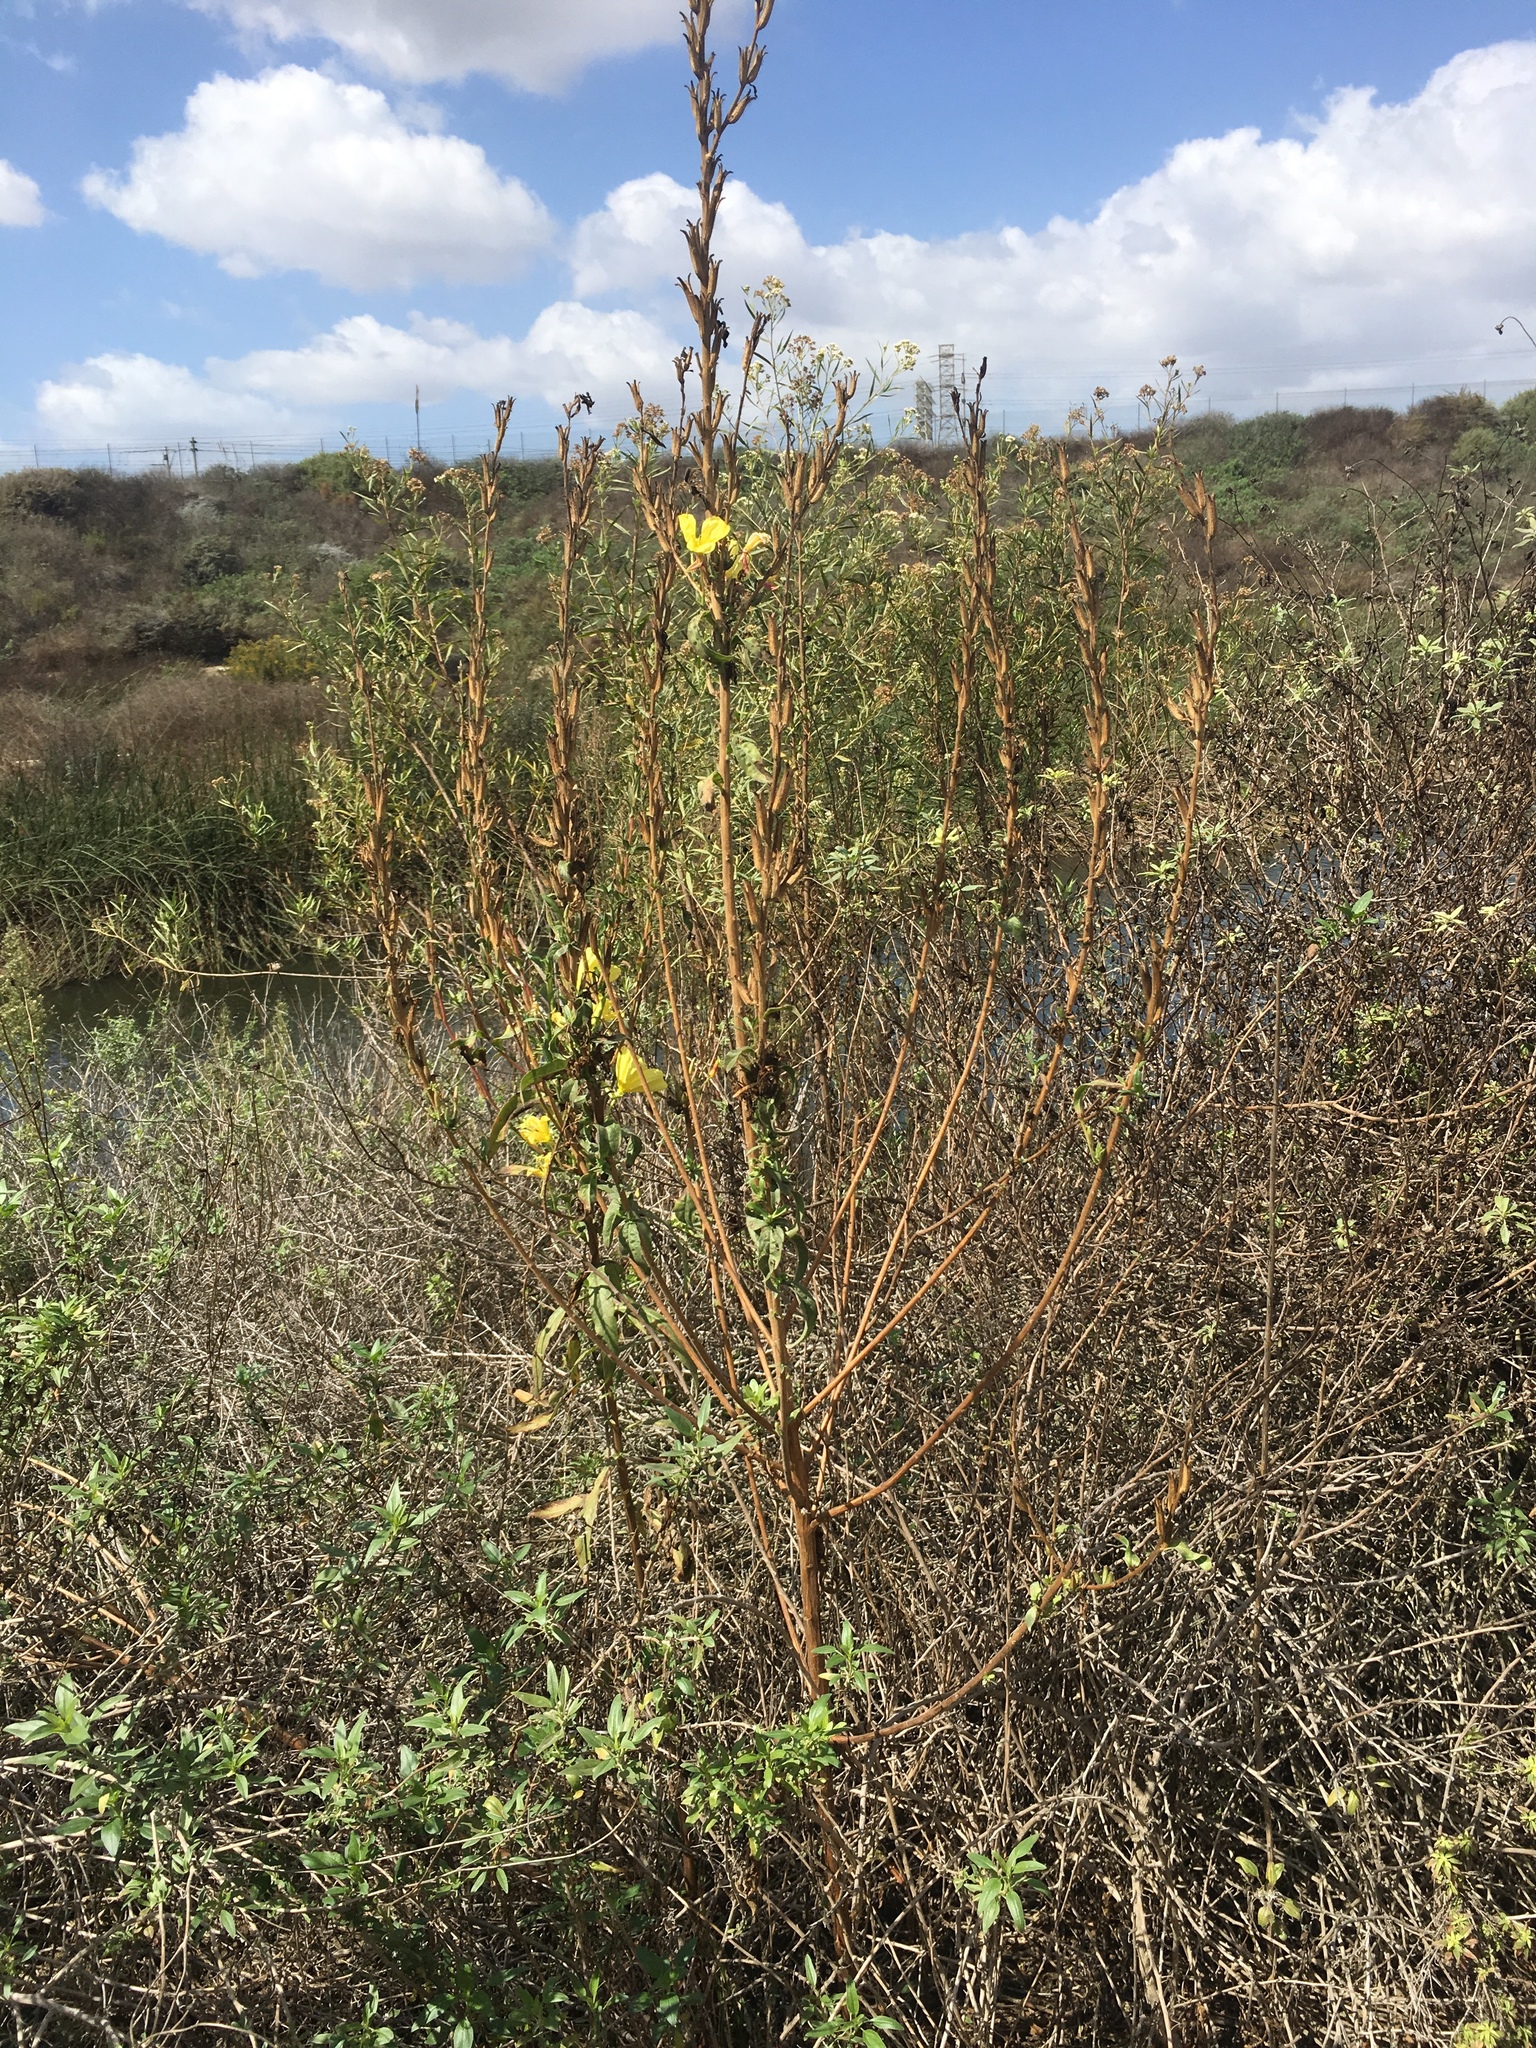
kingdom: Plantae
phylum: Tracheophyta
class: Magnoliopsida
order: Myrtales
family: Onagraceae
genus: Oenothera
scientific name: Oenothera elata
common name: Hooker's evening-primrose
